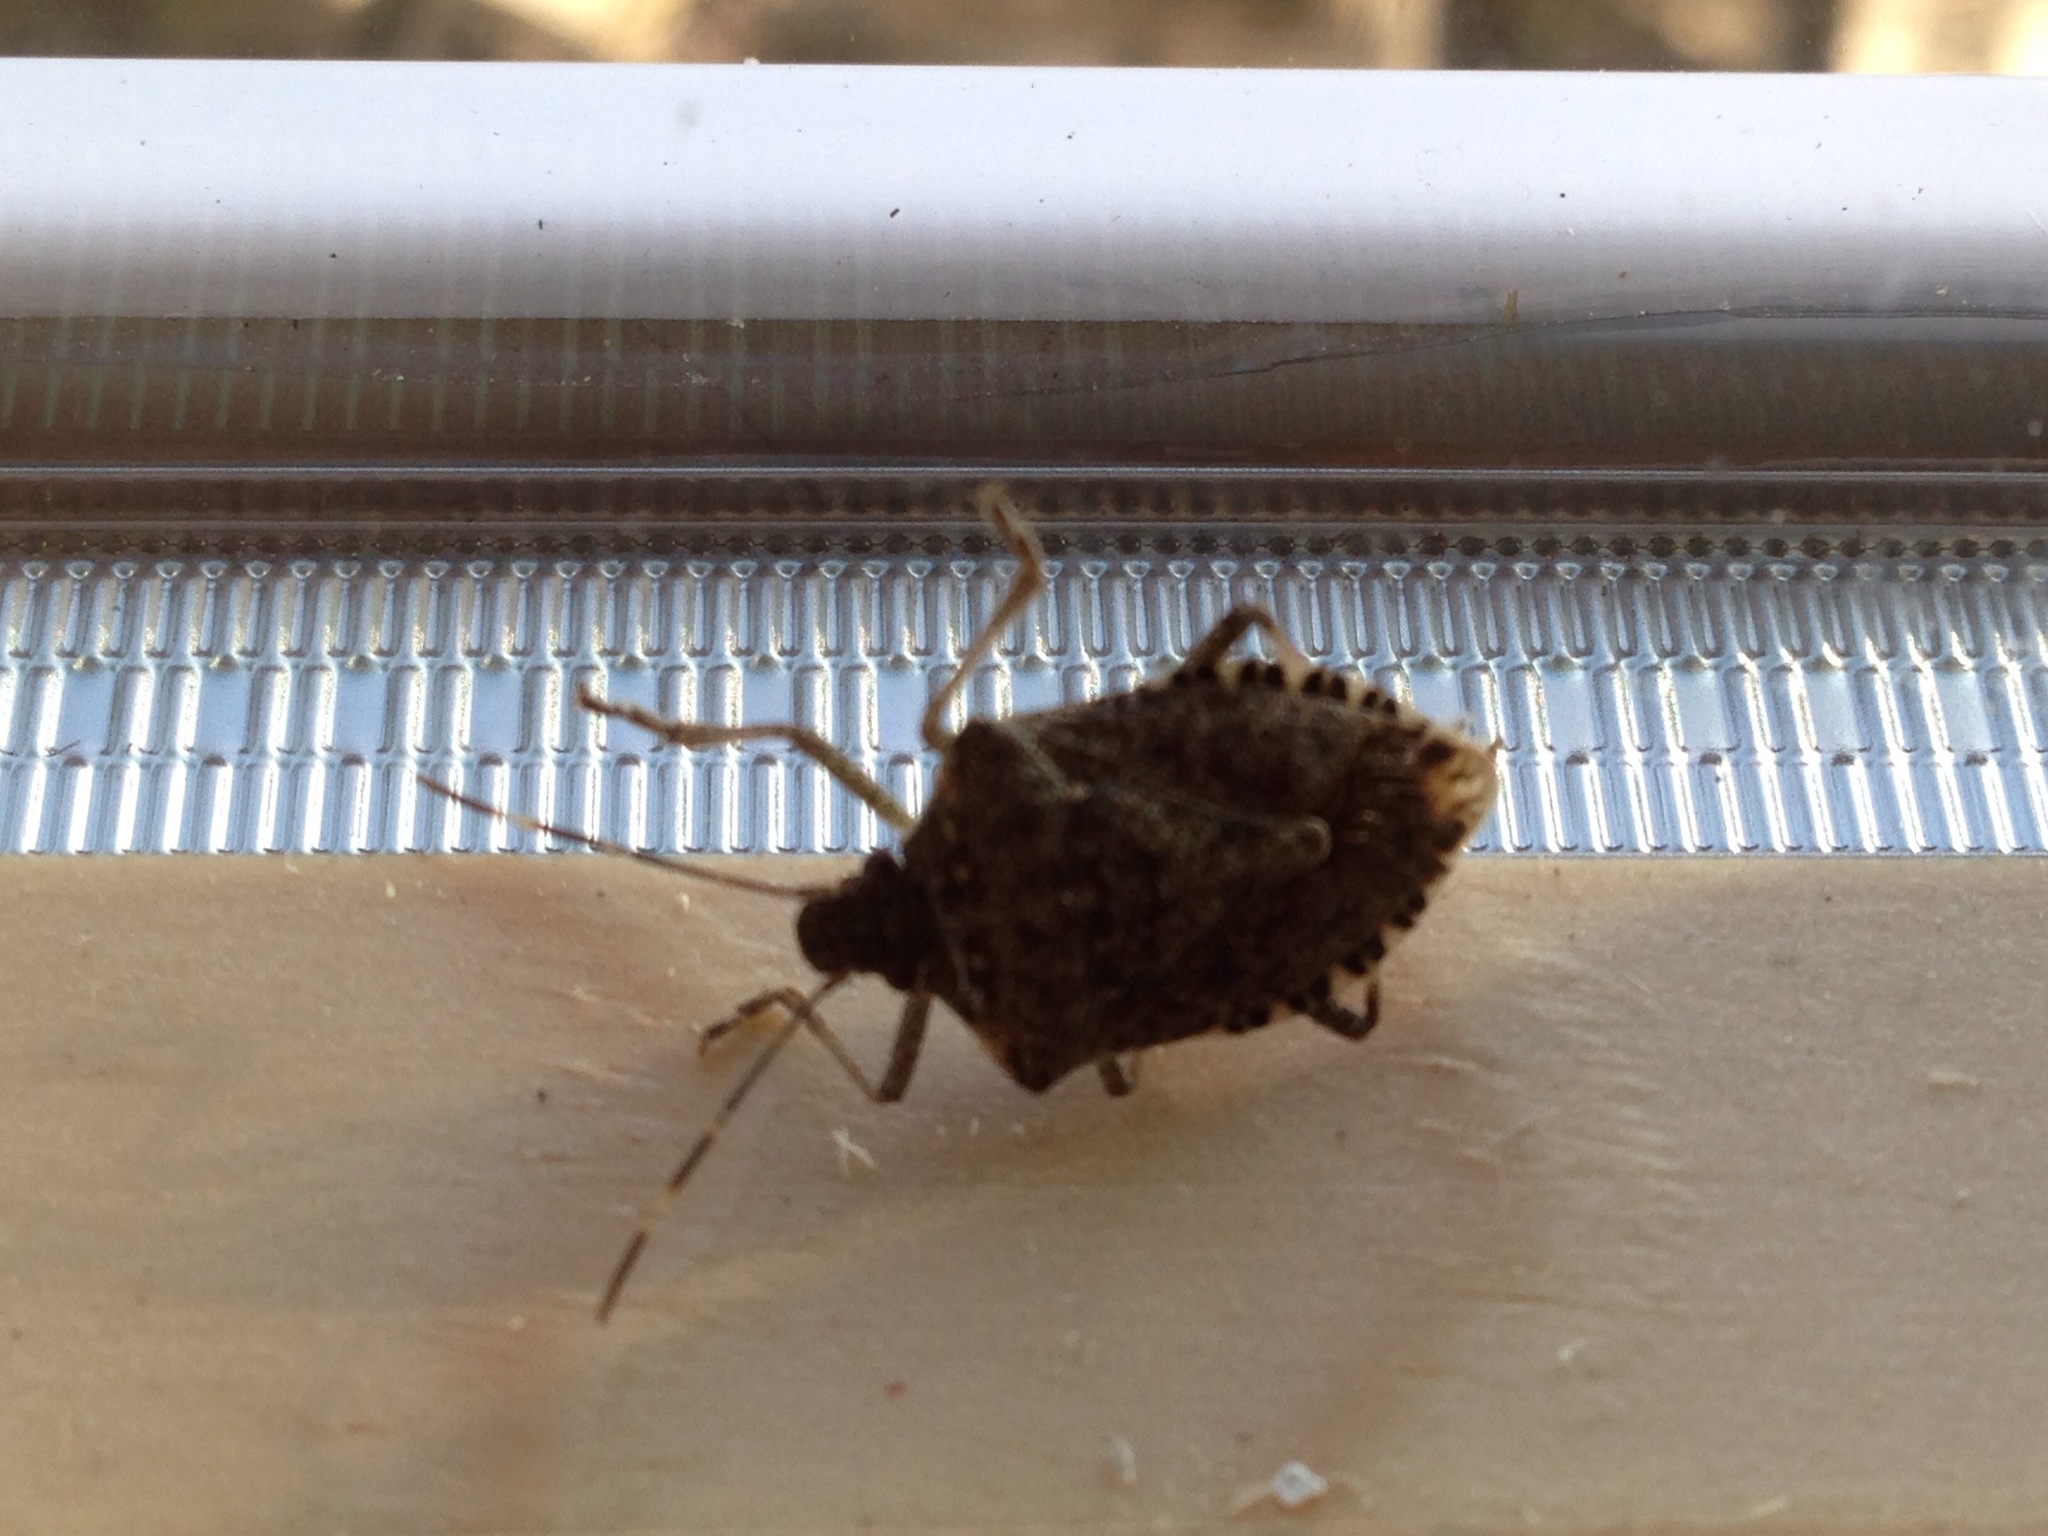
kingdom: Animalia
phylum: Arthropoda
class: Insecta
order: Hemiptera
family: Pentatomidae
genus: Halyomorpha
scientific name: Halyomorpha halys
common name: Brown marmorated stink bug
